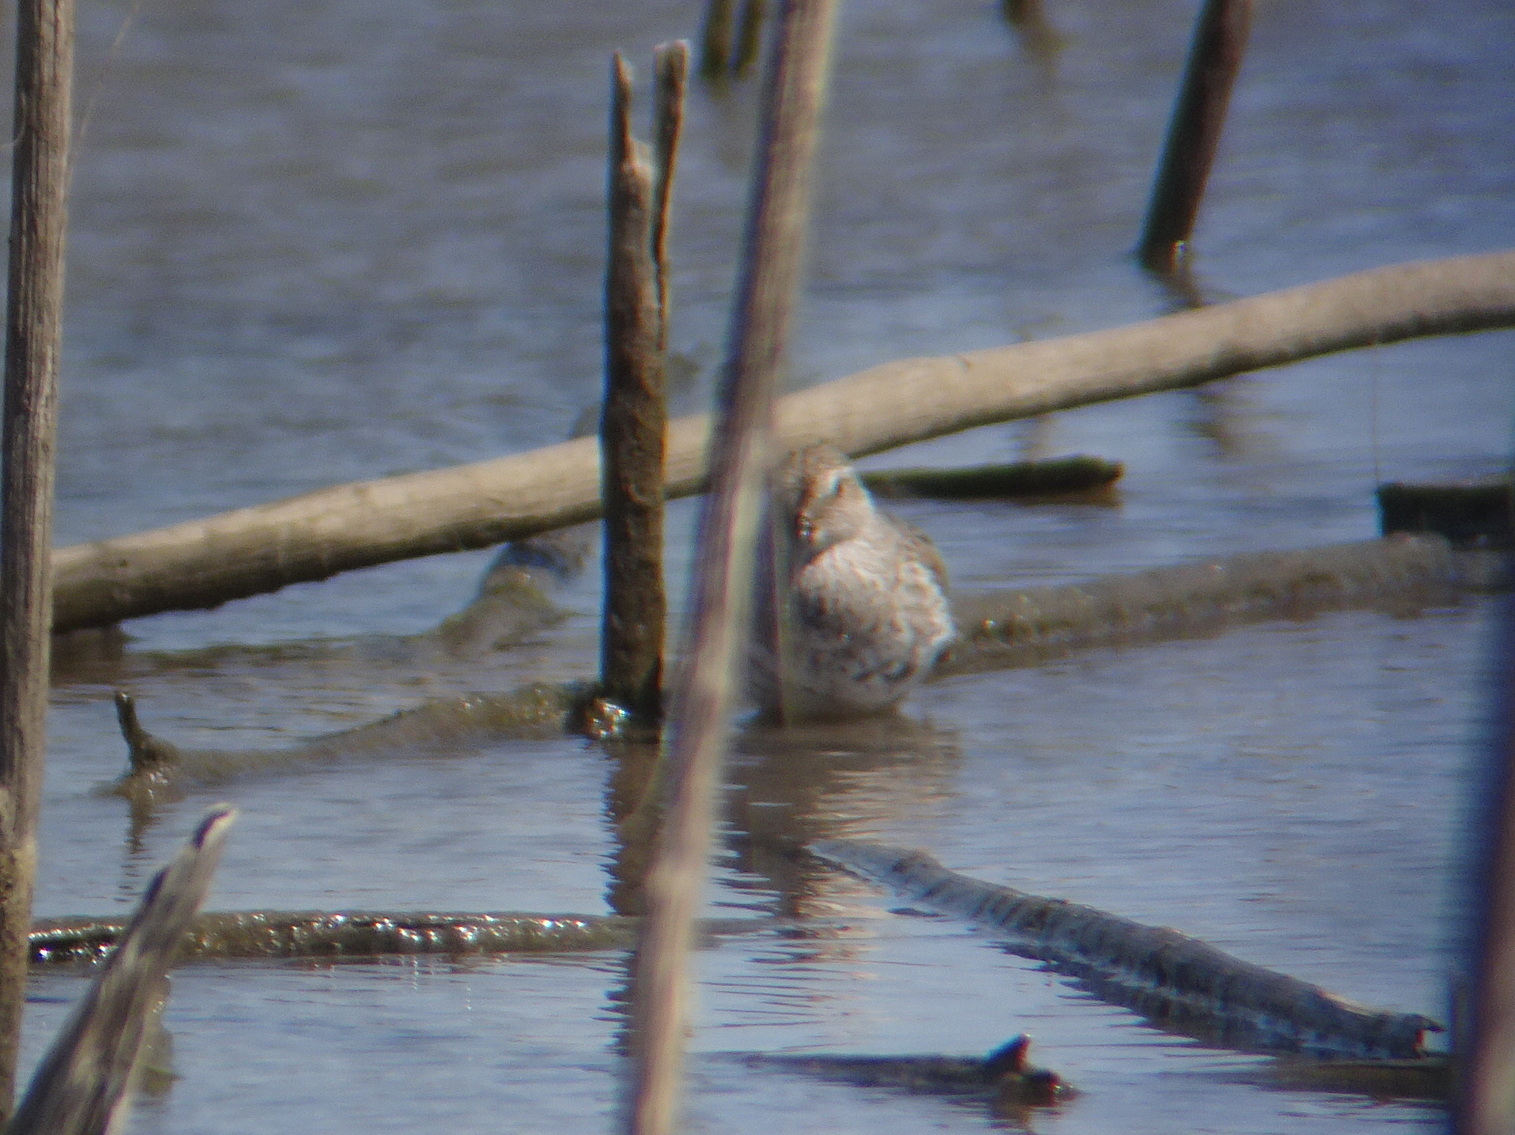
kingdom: Animalia
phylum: Chordata
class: Aves
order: Charadriiformes
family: Scolopacidae
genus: Calidris
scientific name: Calidris alpina
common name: Dunlin
